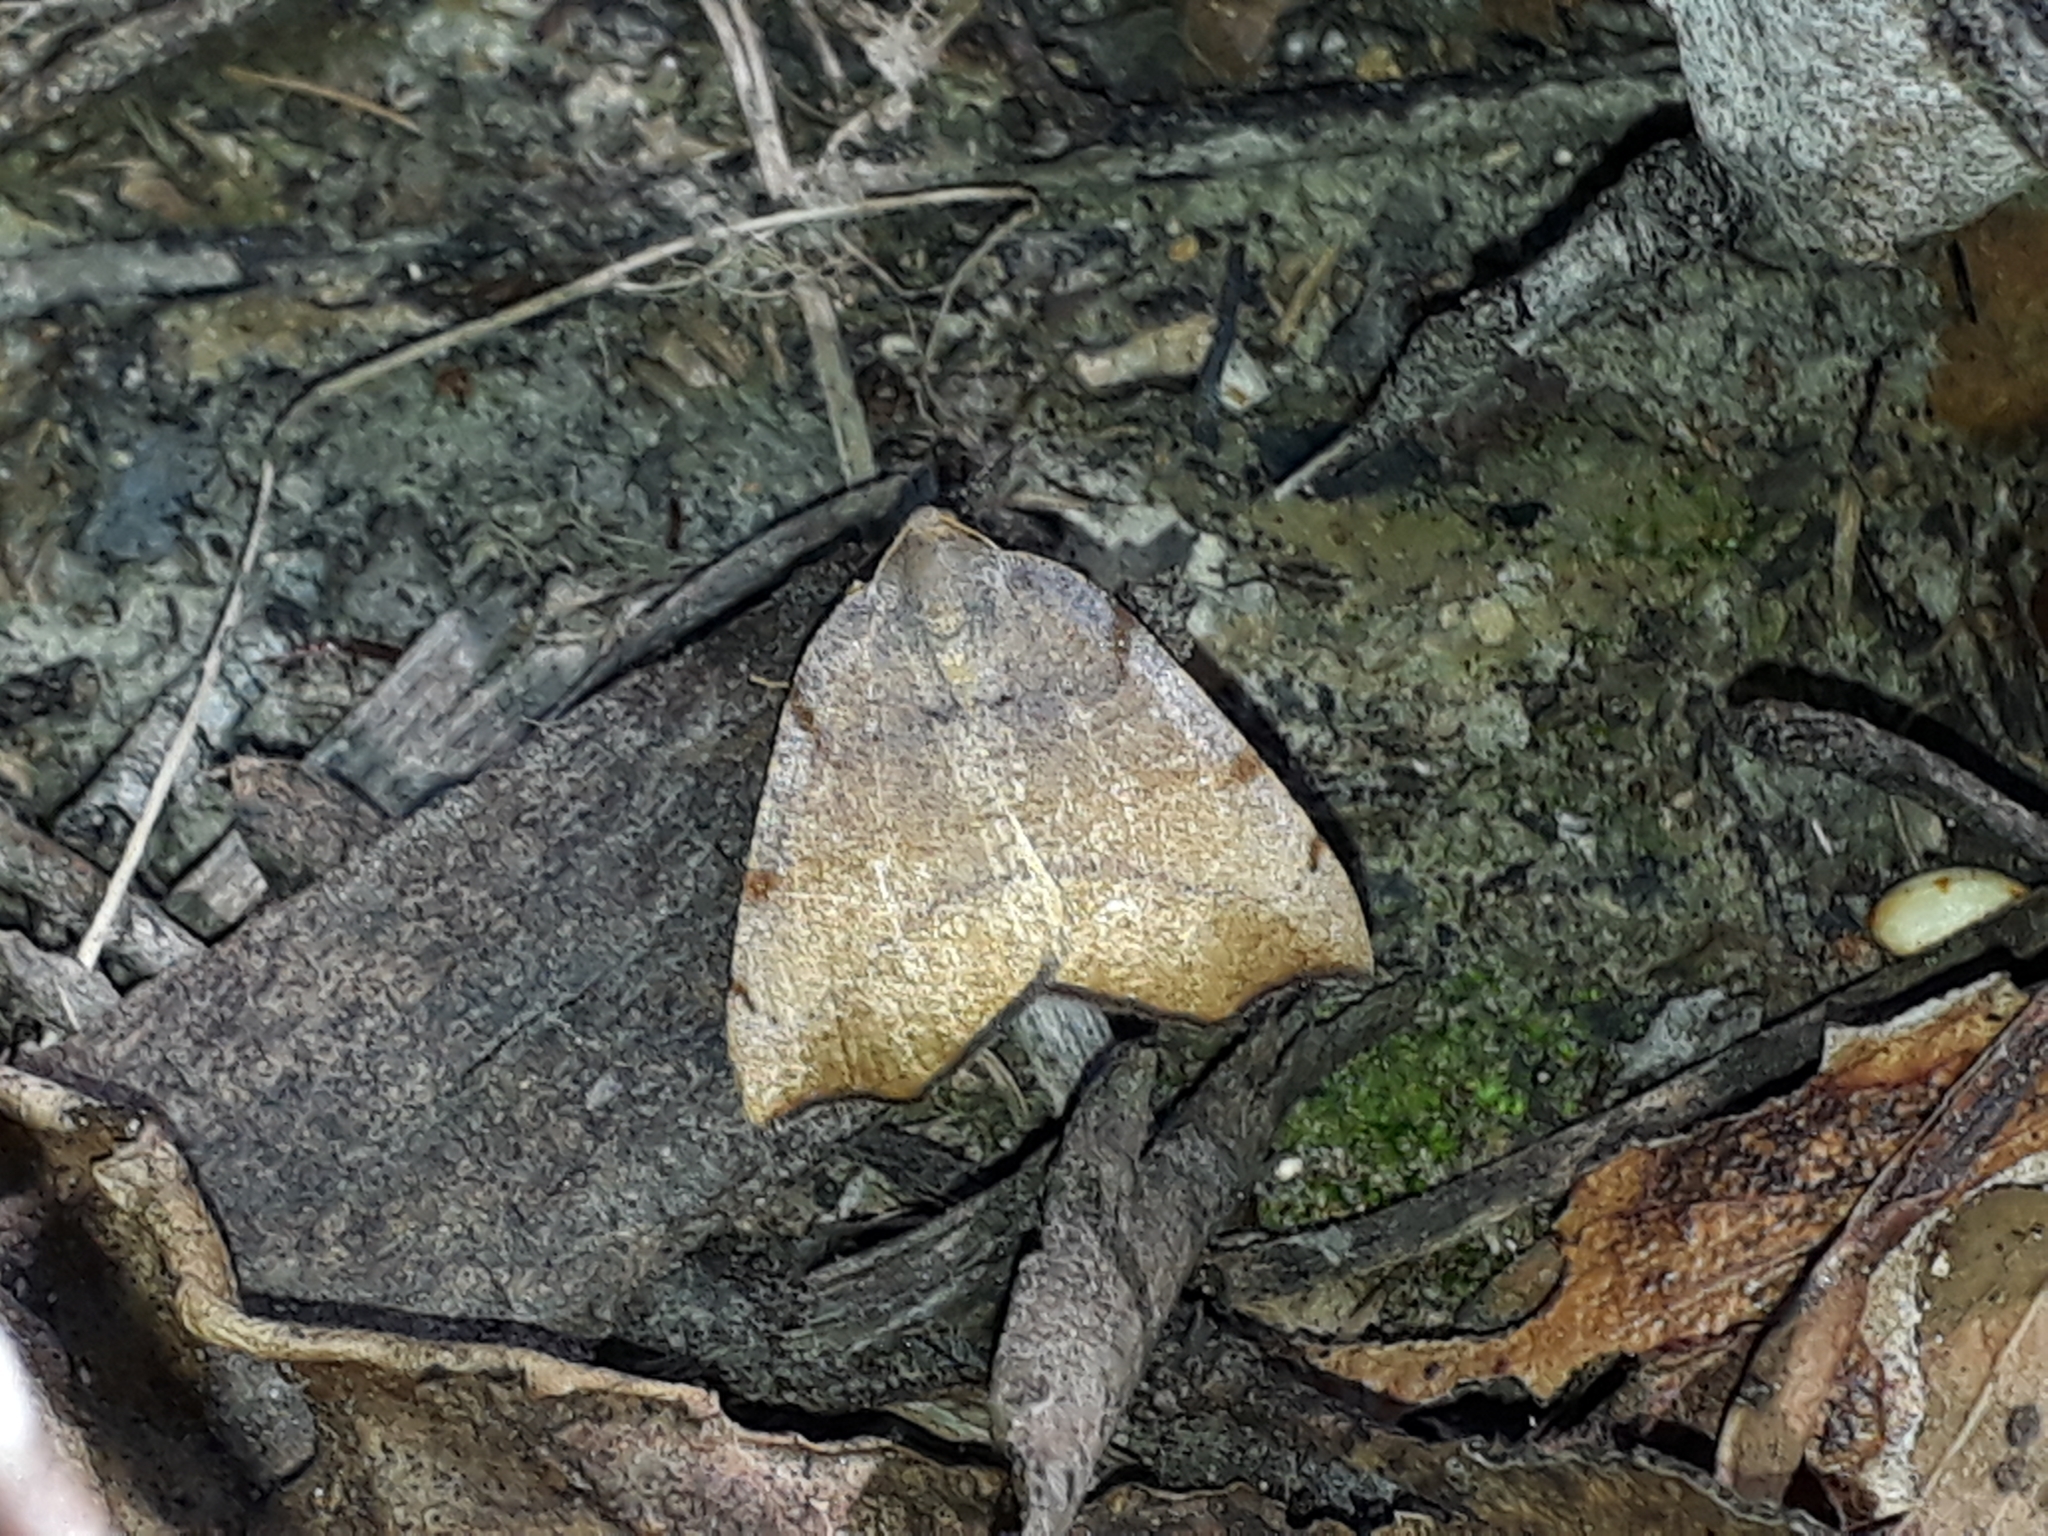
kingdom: Animalia
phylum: Arthropoda
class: Insecta
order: Lepidoptera
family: Geometridae
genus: Sestra
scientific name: Sestra flexata
